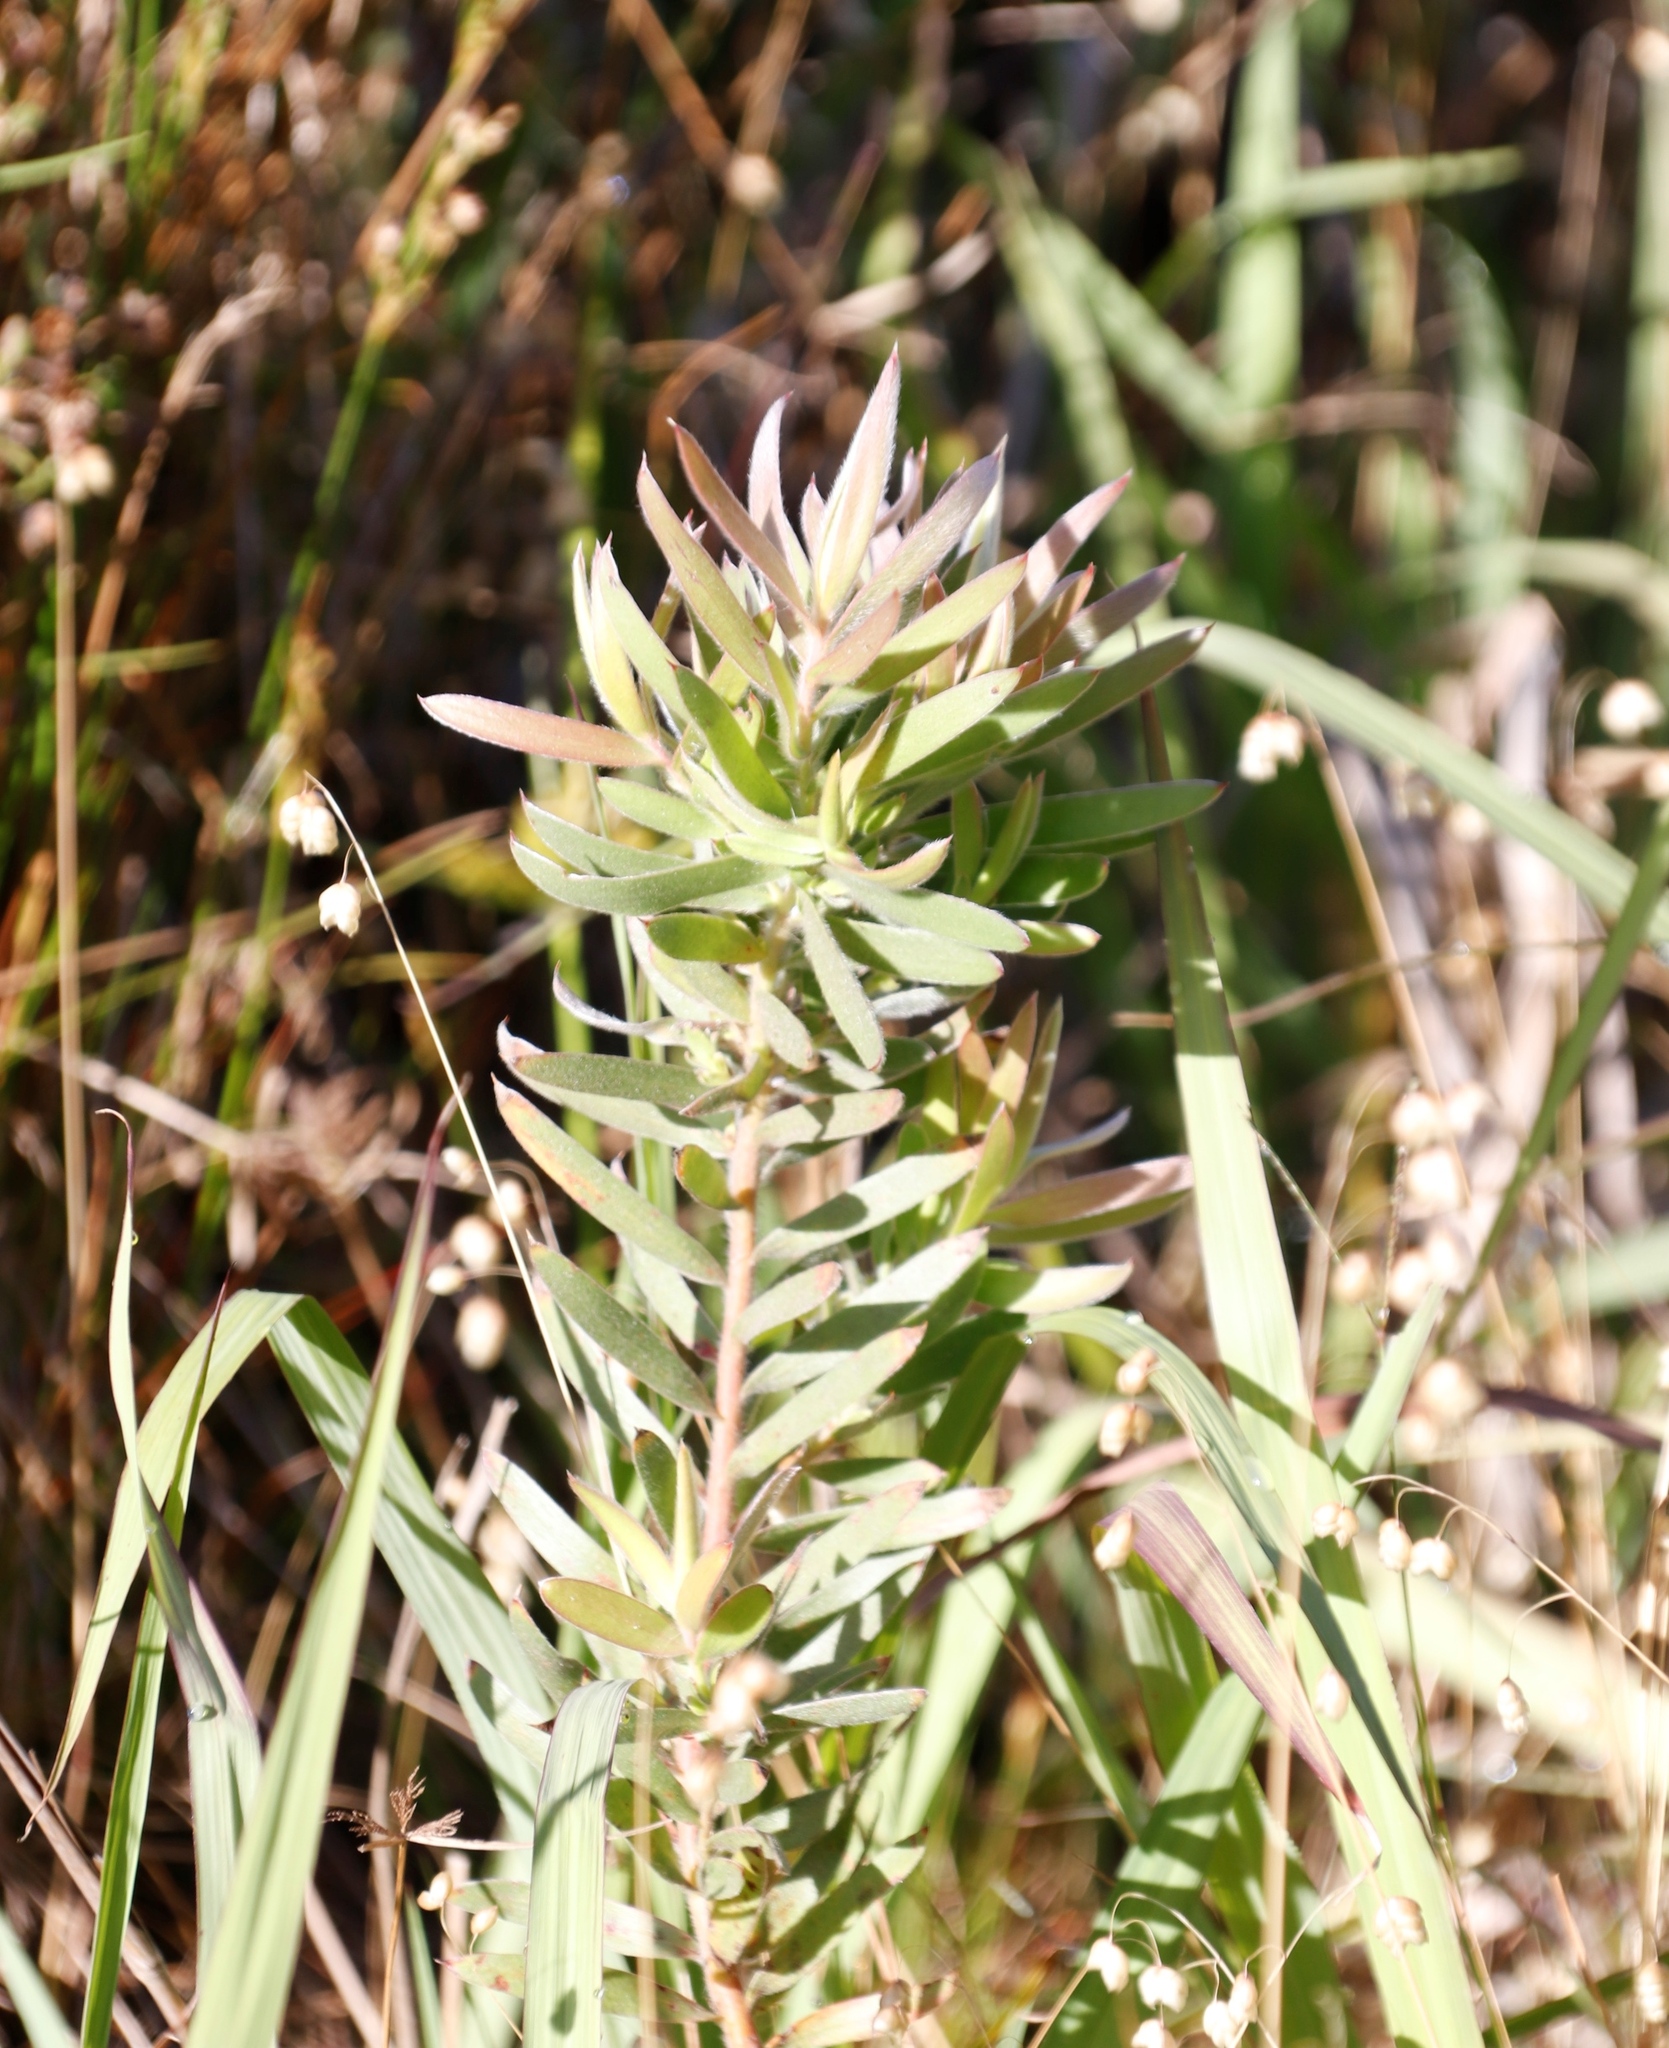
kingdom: Plantae
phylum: Tracheophyta
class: Magnoliopsida
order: Proteales
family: Proteaceae
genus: Leucadendron
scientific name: Leucadendron macowanii
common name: Acacia-leaf conebush
